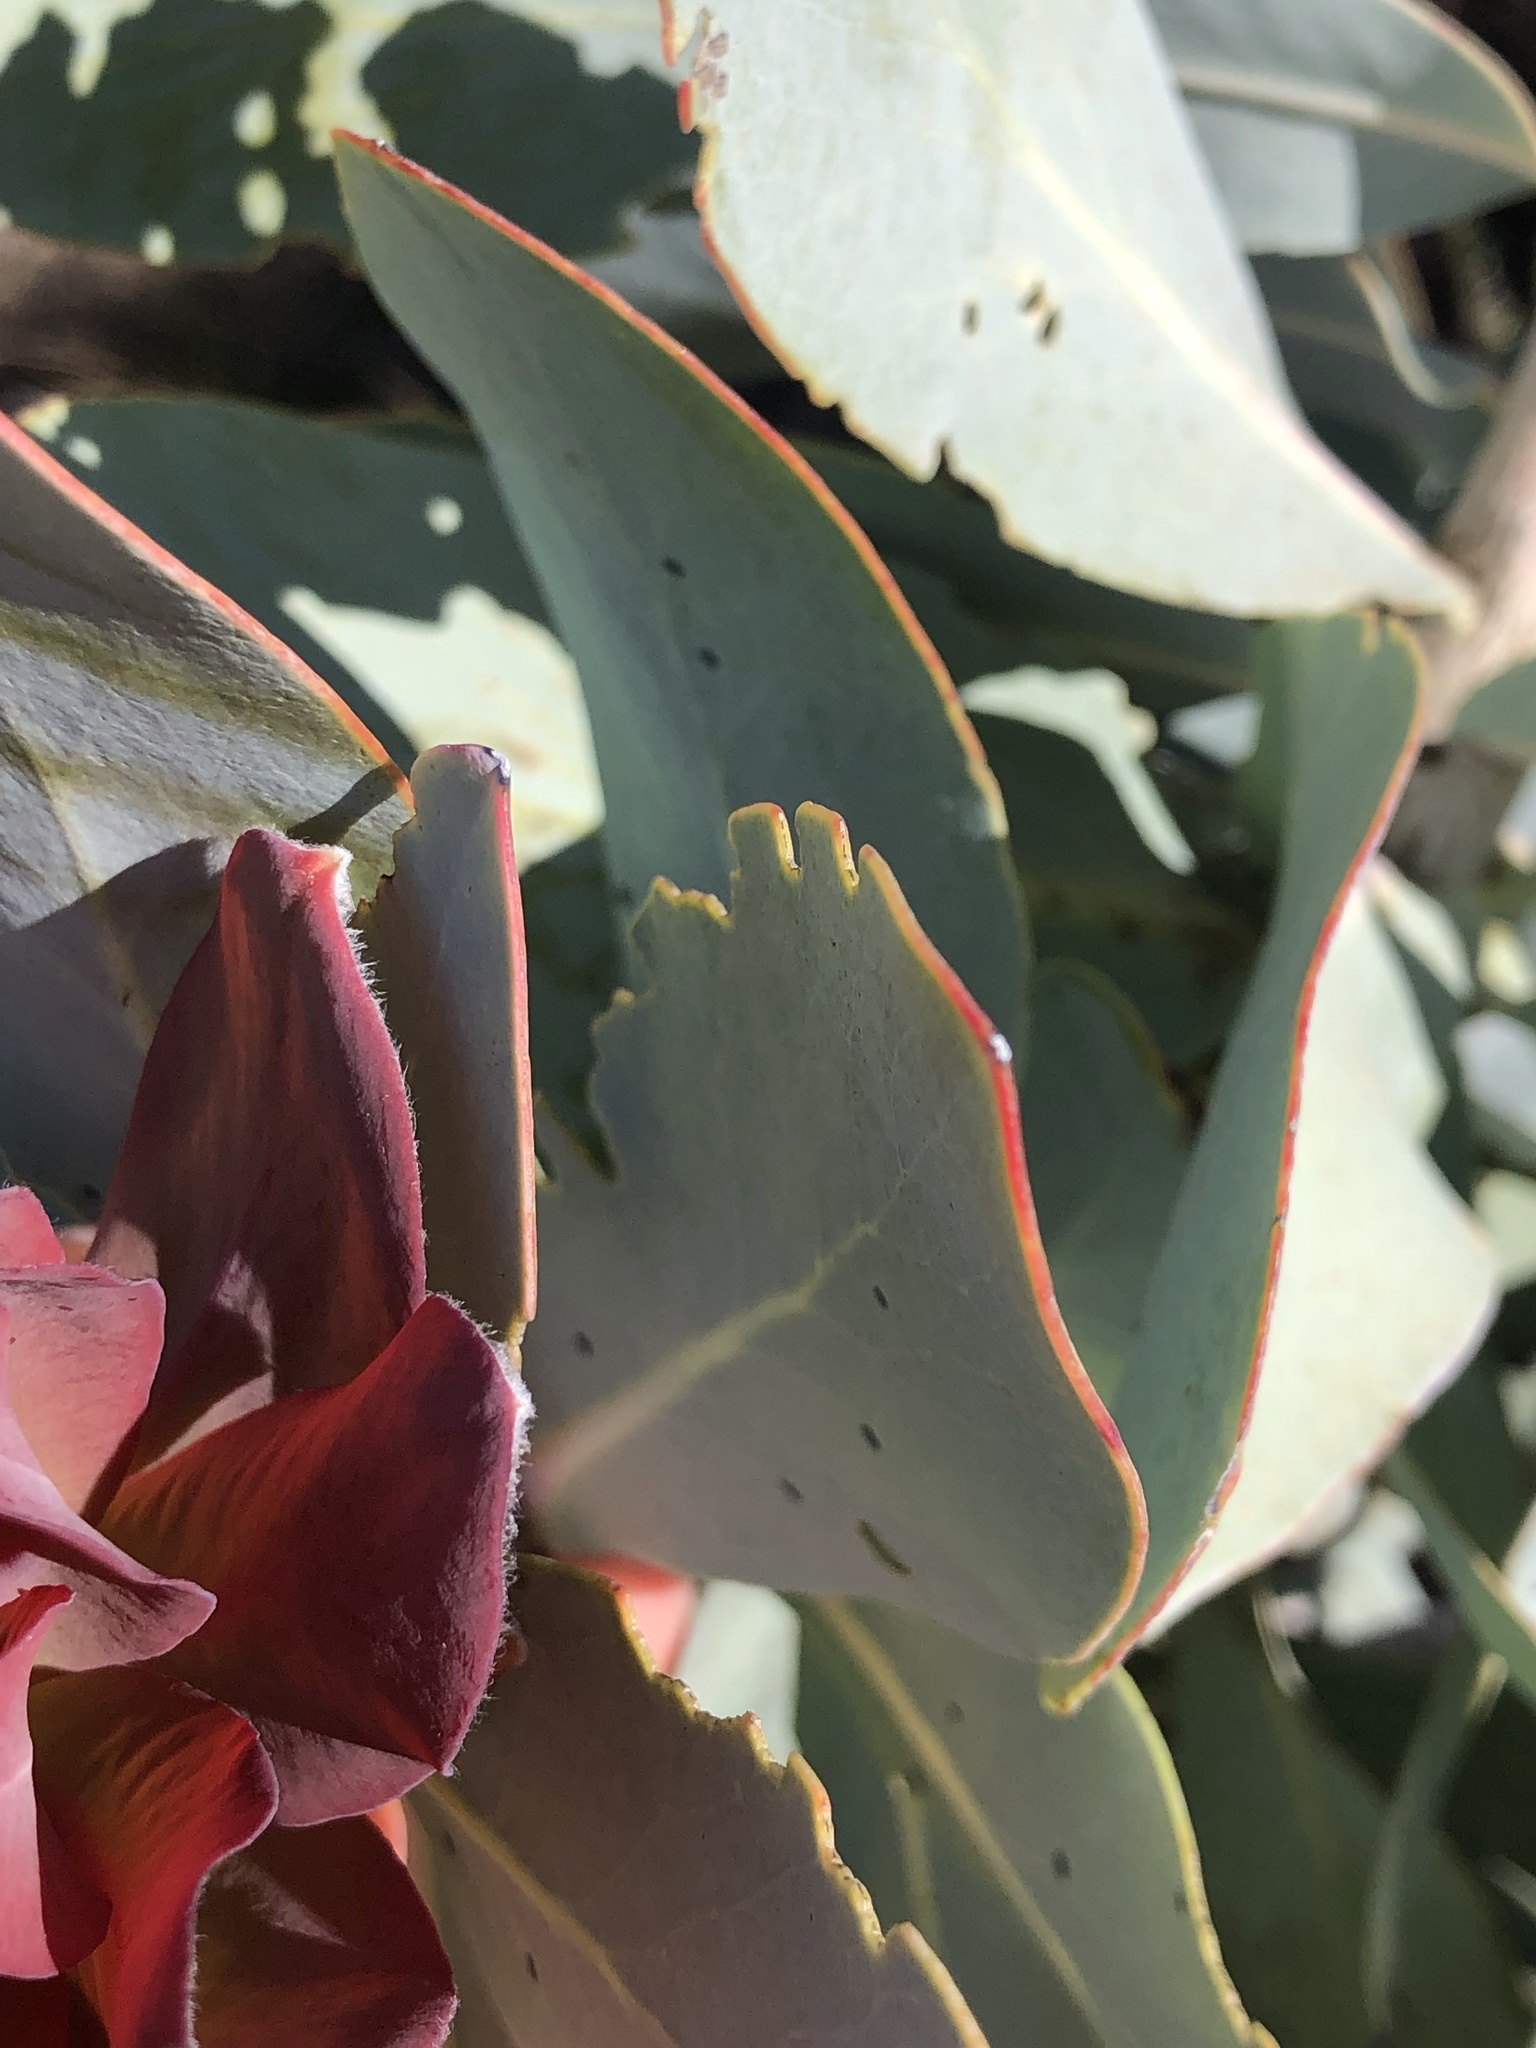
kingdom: Plantae
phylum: Tracheophyta
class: Magnoliopsida
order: Proteales
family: Proteaceae
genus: Protea
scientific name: Protea nitida
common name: Tree protea
